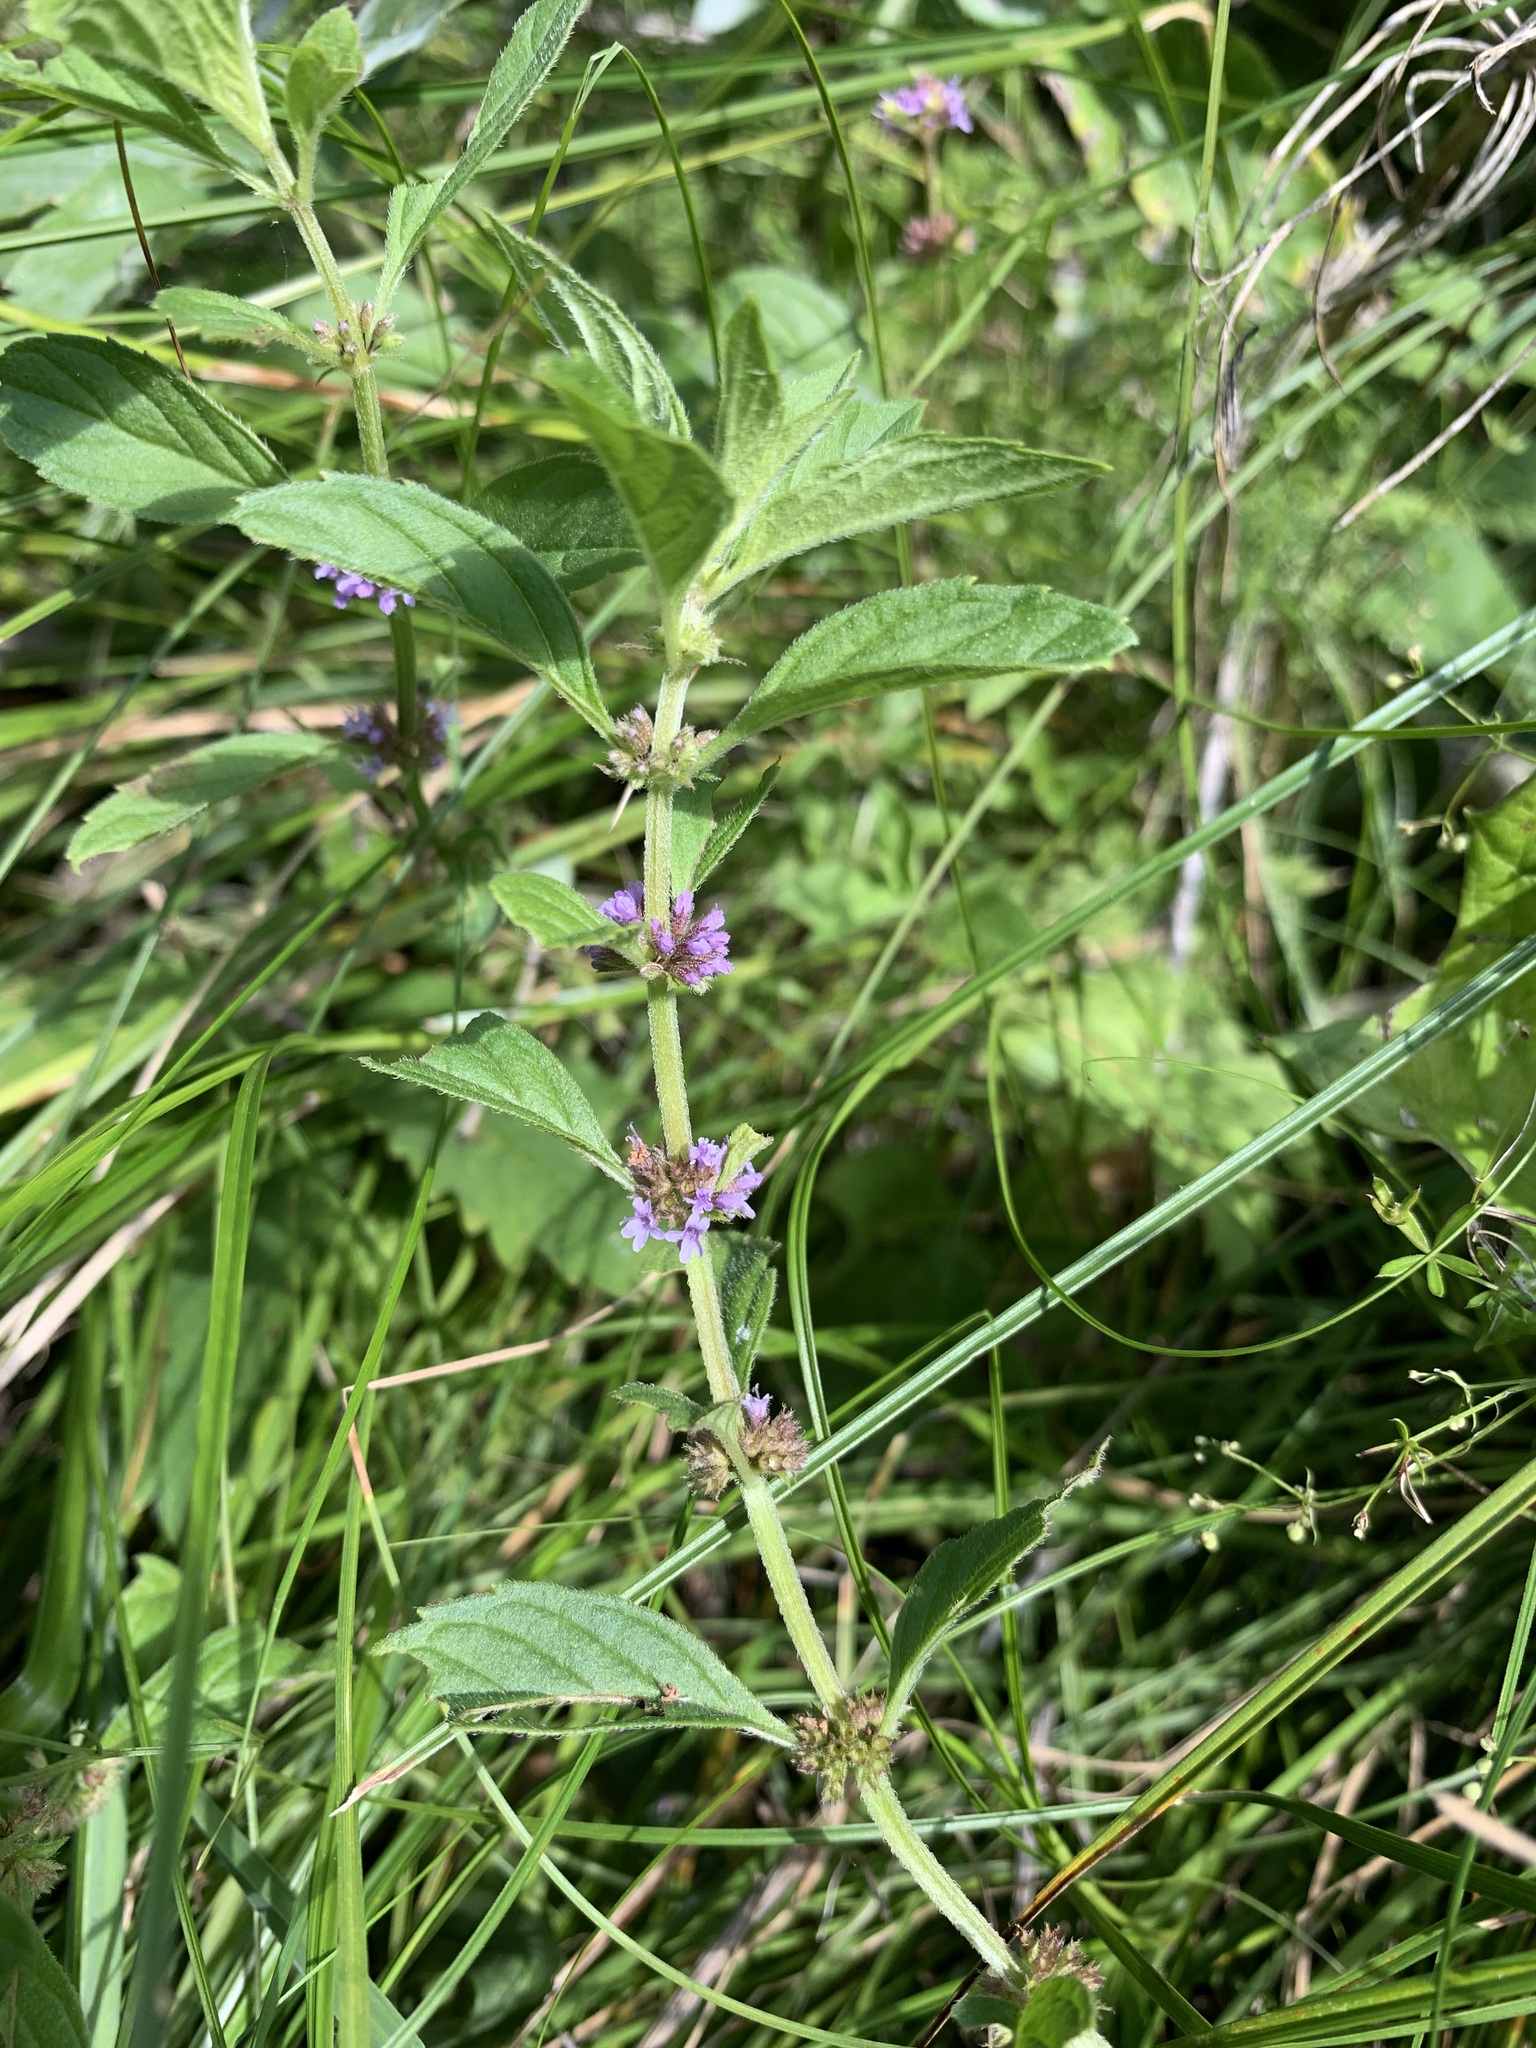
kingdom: Plantae
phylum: Tracheophyta
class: Magnoliopsida
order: Lamiales
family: Lamiaceae
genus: Mentha
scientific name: Mentha arvensis
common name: Corn mint
